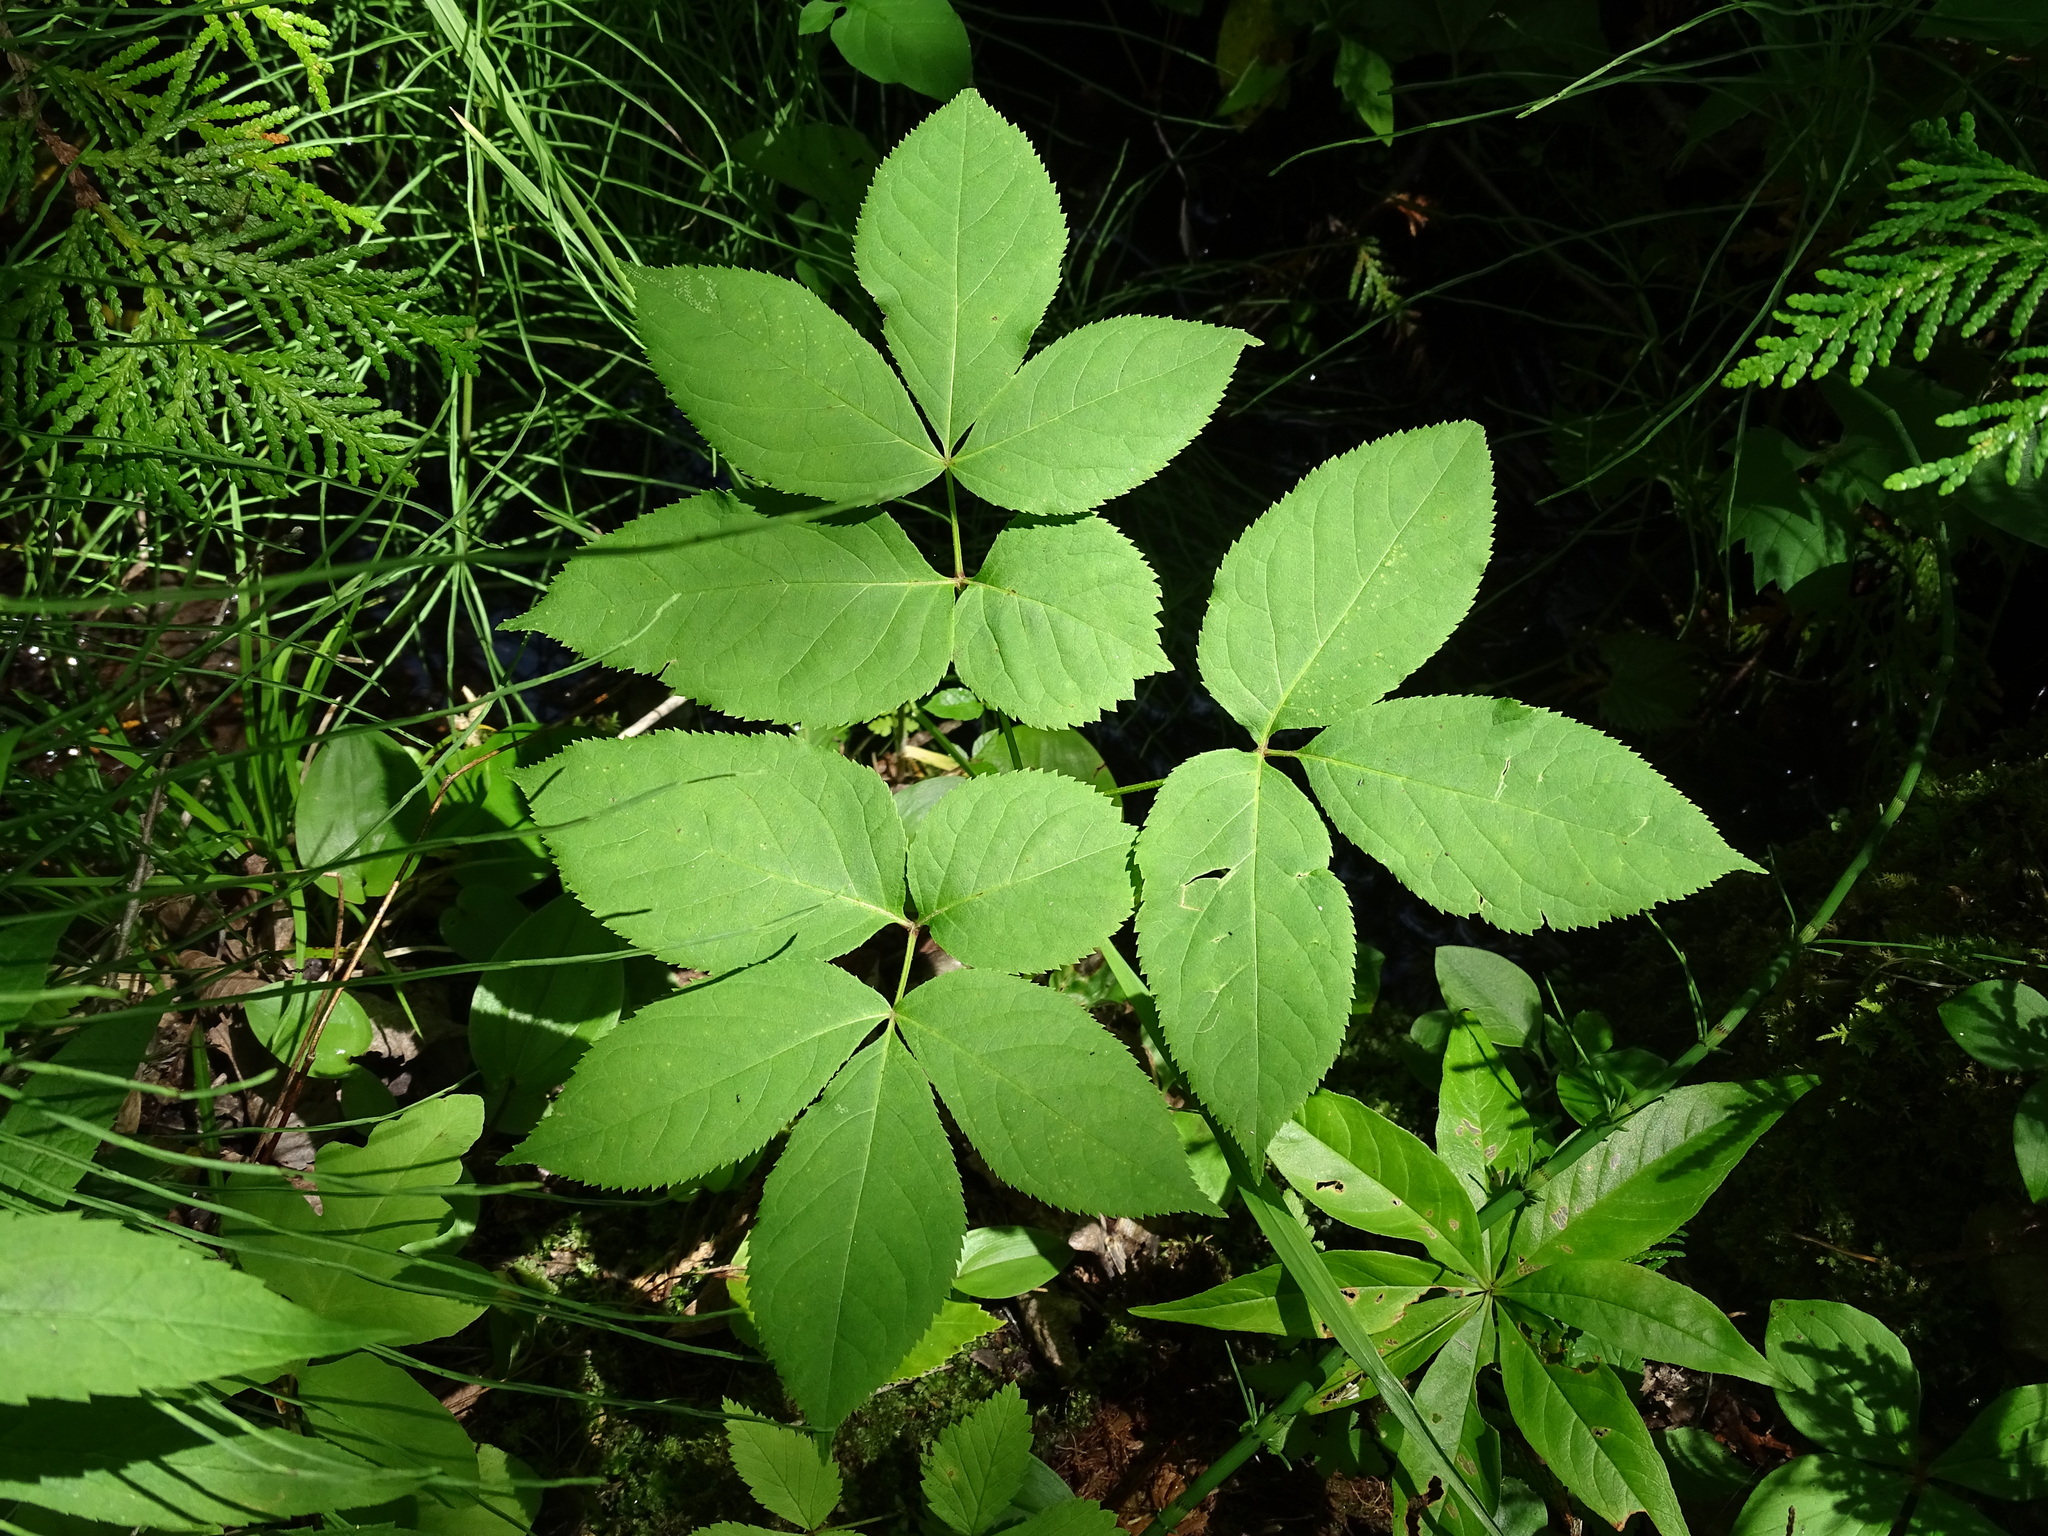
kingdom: Plantae
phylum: Tracheophyta
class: Magnoliopsida
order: Apiales
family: Araliaceae
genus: Aralia
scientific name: Aralia nudicaulis
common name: Wild sarsaparilla
